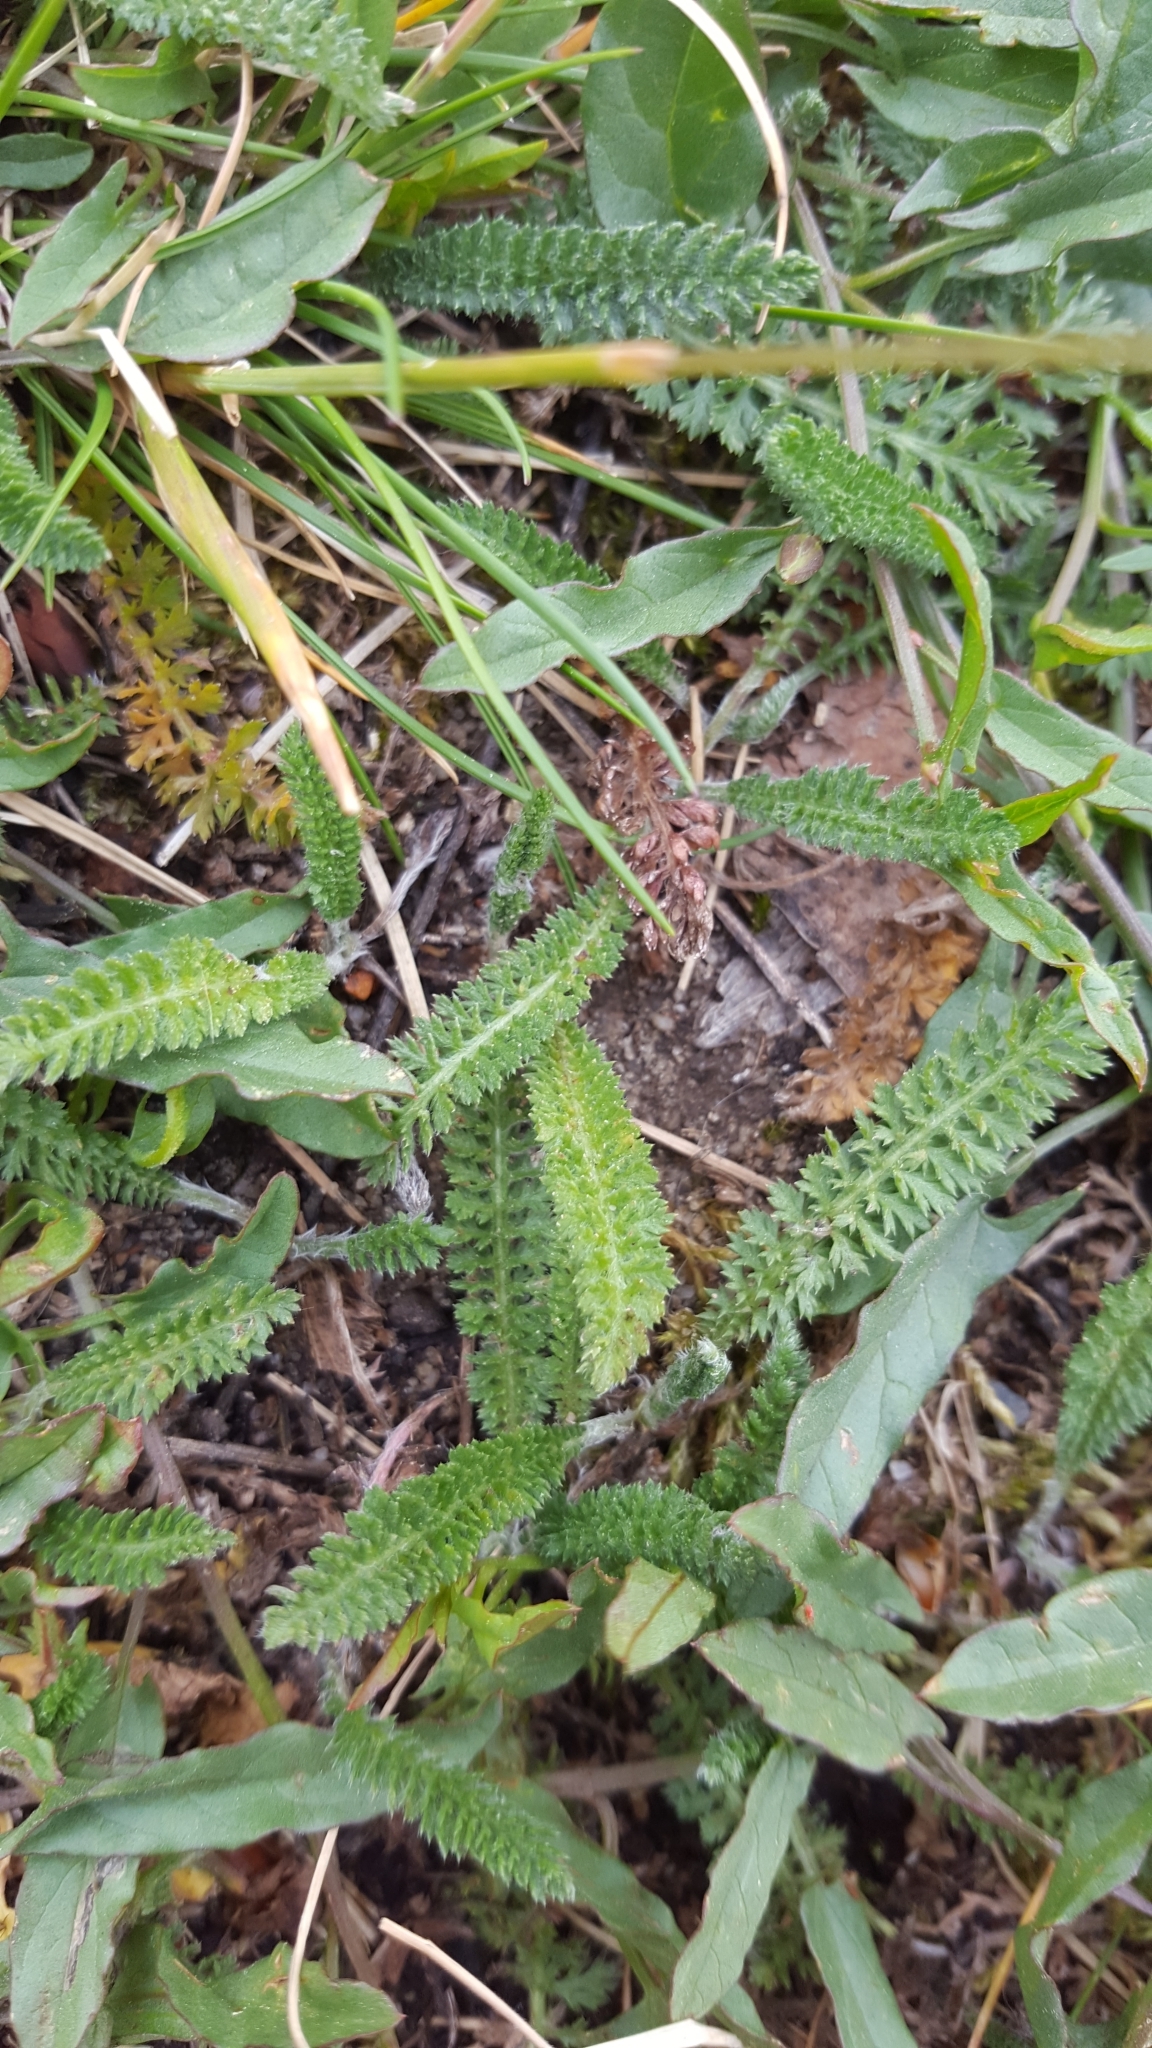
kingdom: Plantae
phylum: Tracheophyta
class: Magnoliopsida
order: Asterales
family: Asteraceae
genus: Achillea
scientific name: Achillea millefolium
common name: Yarrow
